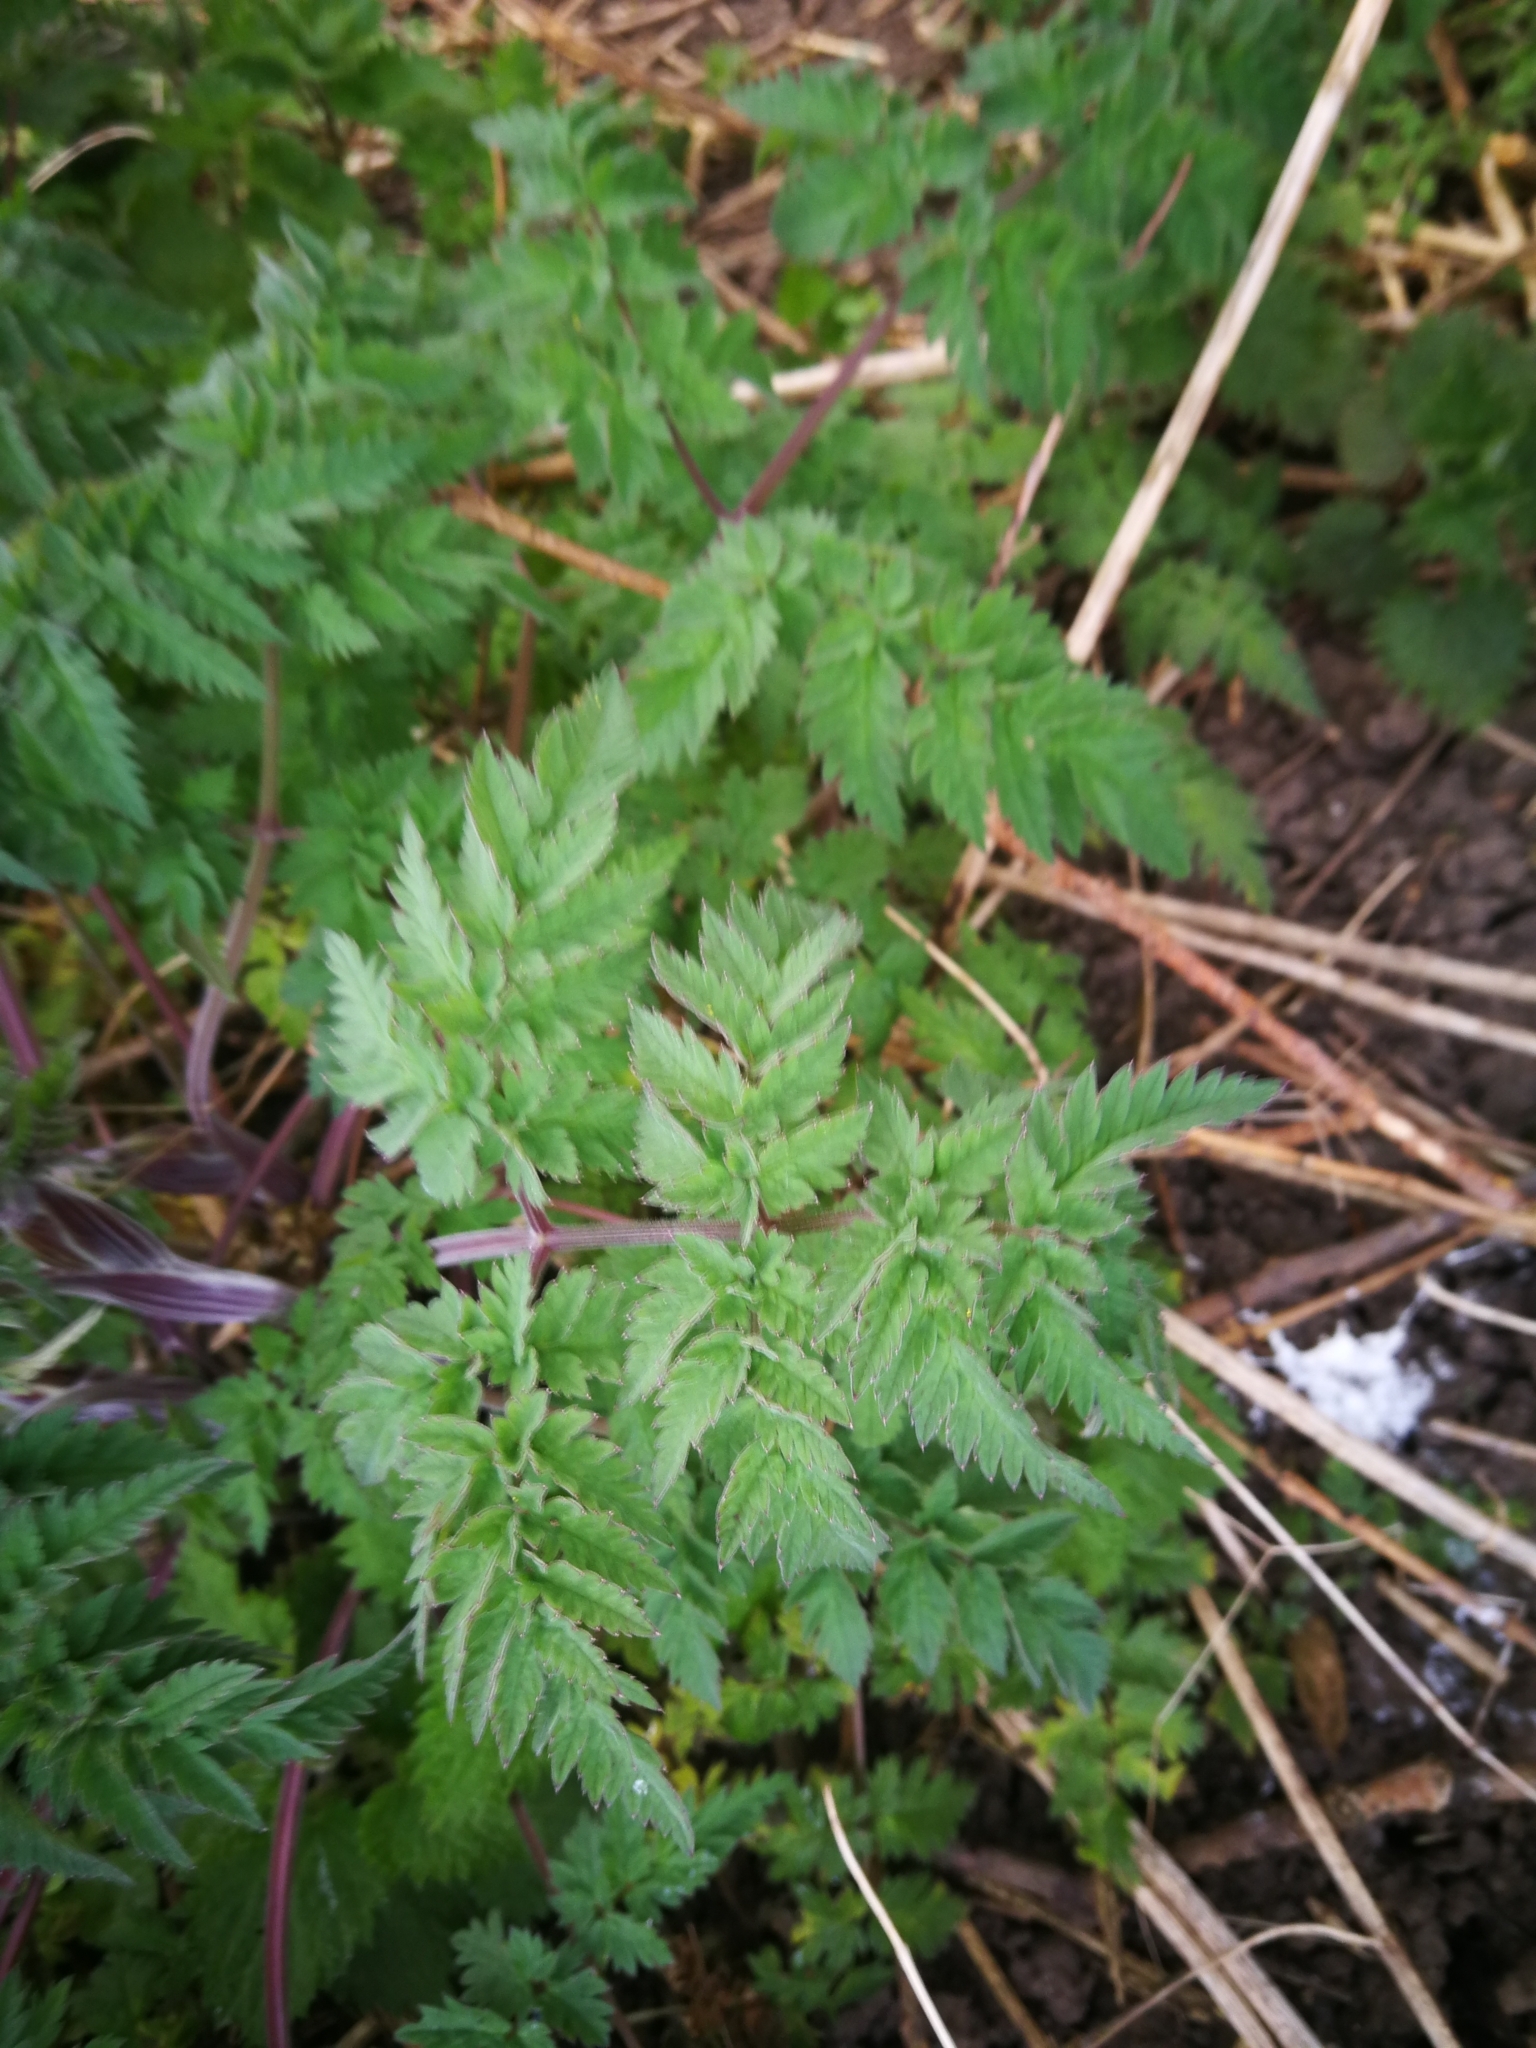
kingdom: Plantae
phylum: Tracheophyta
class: Magnoliopsida
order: Apiales
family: Apiaceae
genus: Anthriscus
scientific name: Anthriscus sylvestris
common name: Cow parsley
